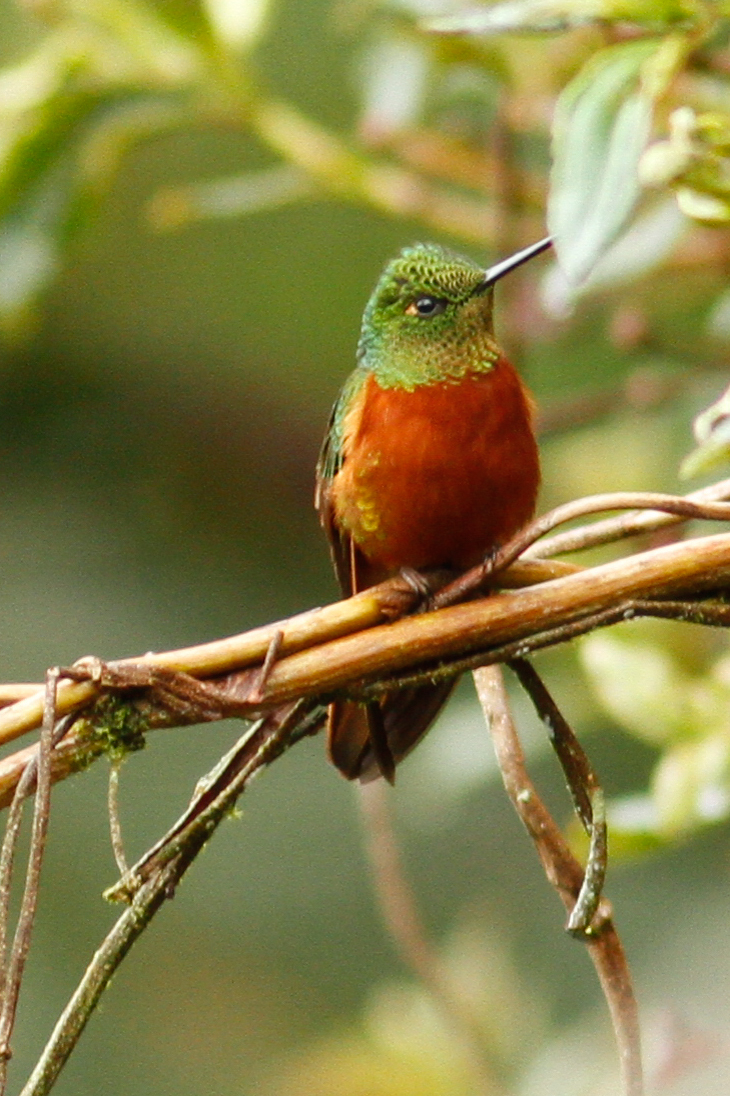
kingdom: Animalia
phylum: Chordata
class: Aves
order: Apodiformes
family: Trochilidae
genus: Boissonneaua
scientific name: Boissonneaua matthewsii
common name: Chestnut-breasted coronet
